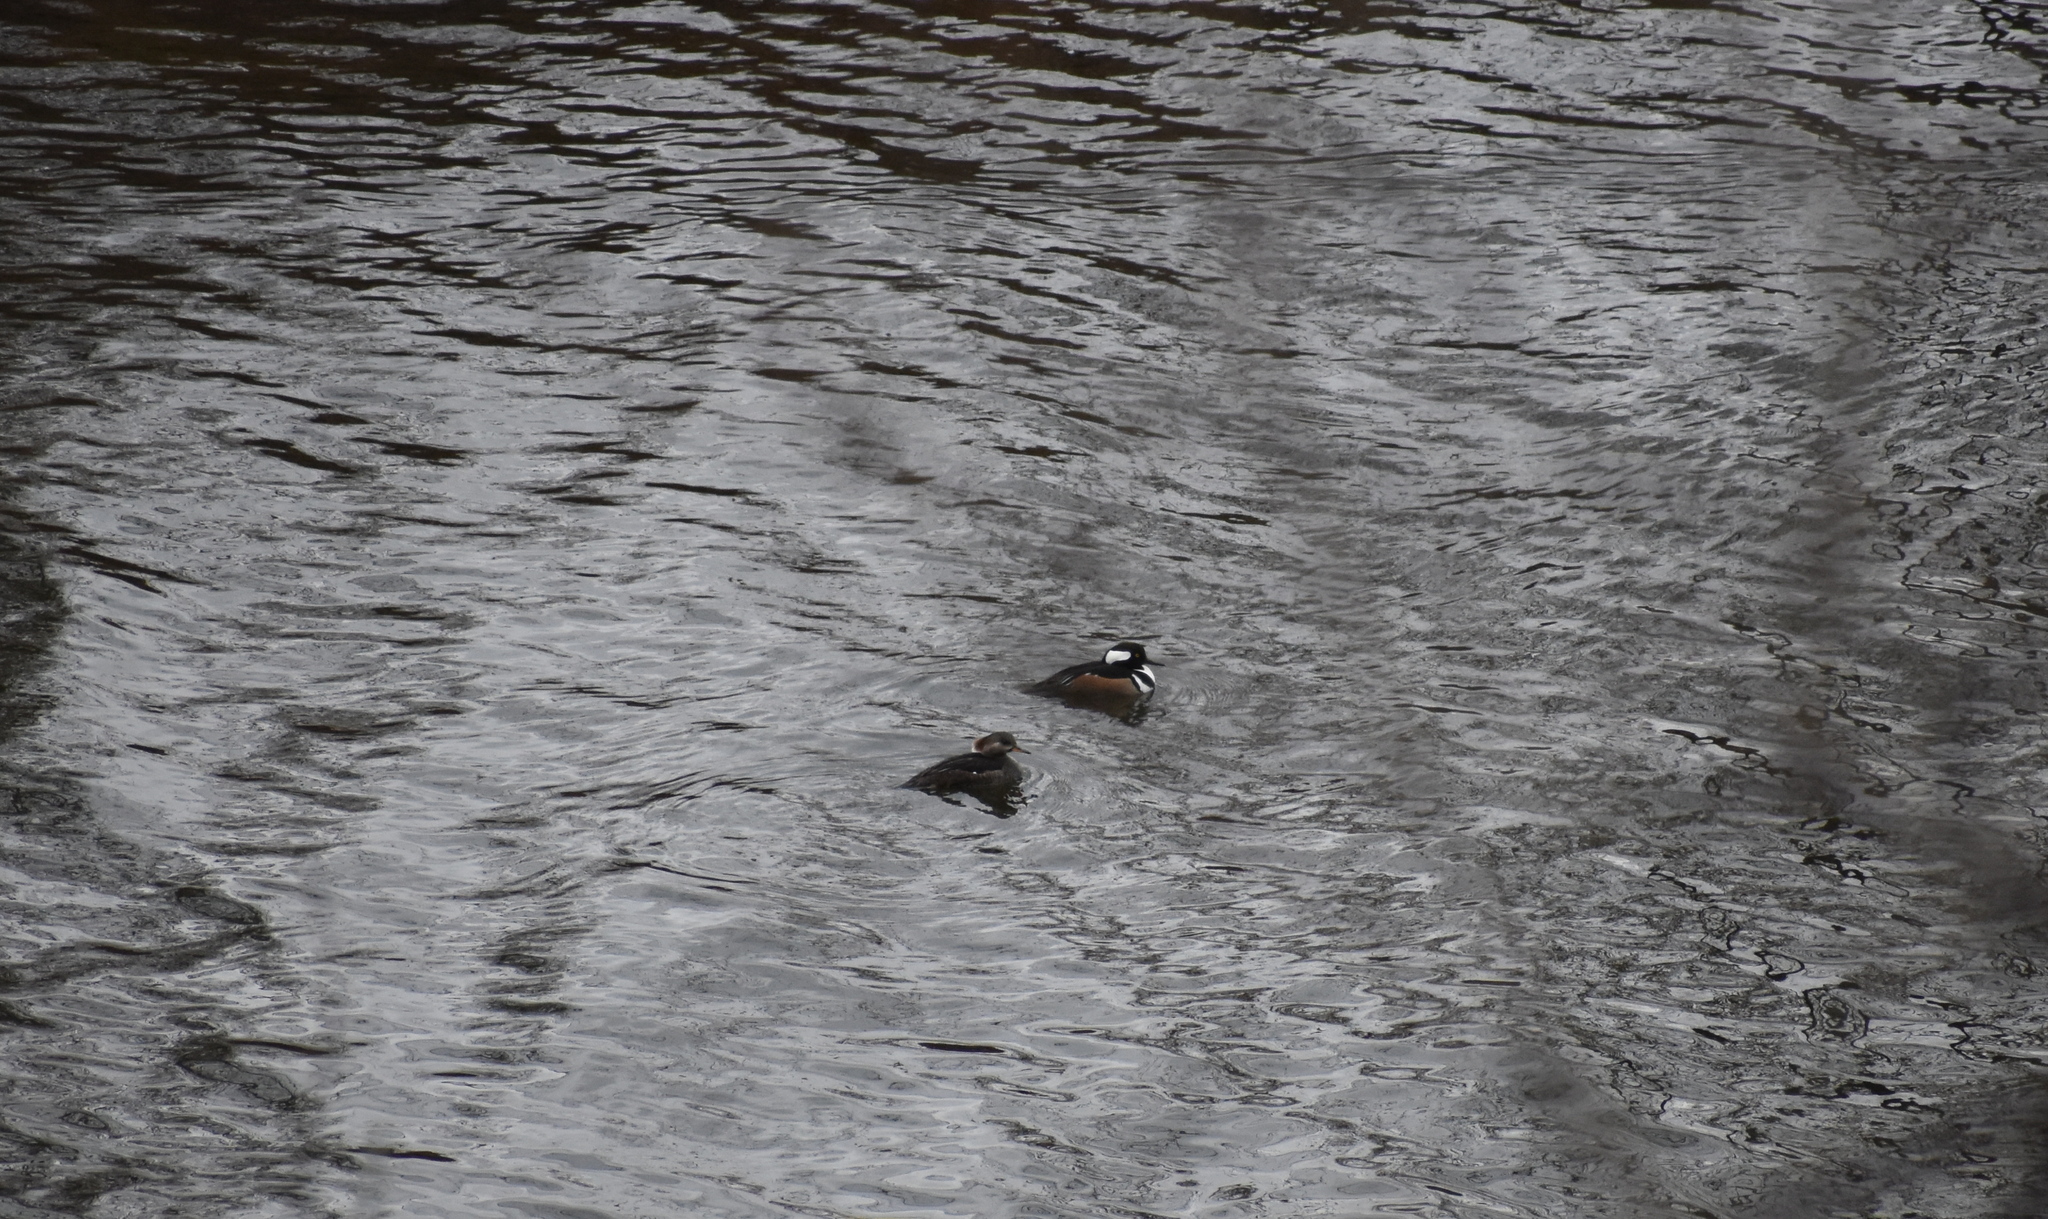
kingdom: Animalia
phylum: Chordata
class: Aves
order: Anseriformes
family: Anatidae
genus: Lophodytes
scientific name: Lophodytes cucullatus
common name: Hooded merganser
